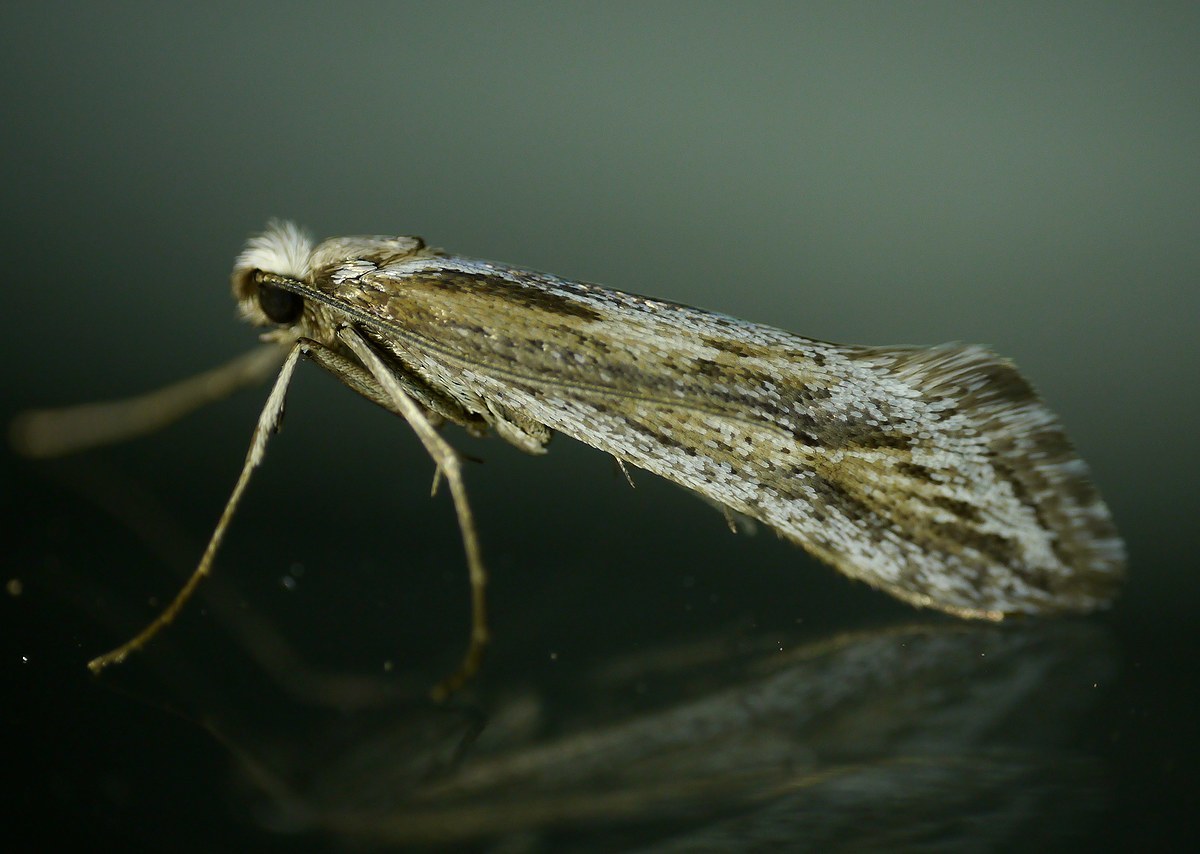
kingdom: Animalia
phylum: Arthropoda
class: Insecta
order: Lepidoptera
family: Eriocottidae
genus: Deuterotinea
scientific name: Deuterotinea casanella
